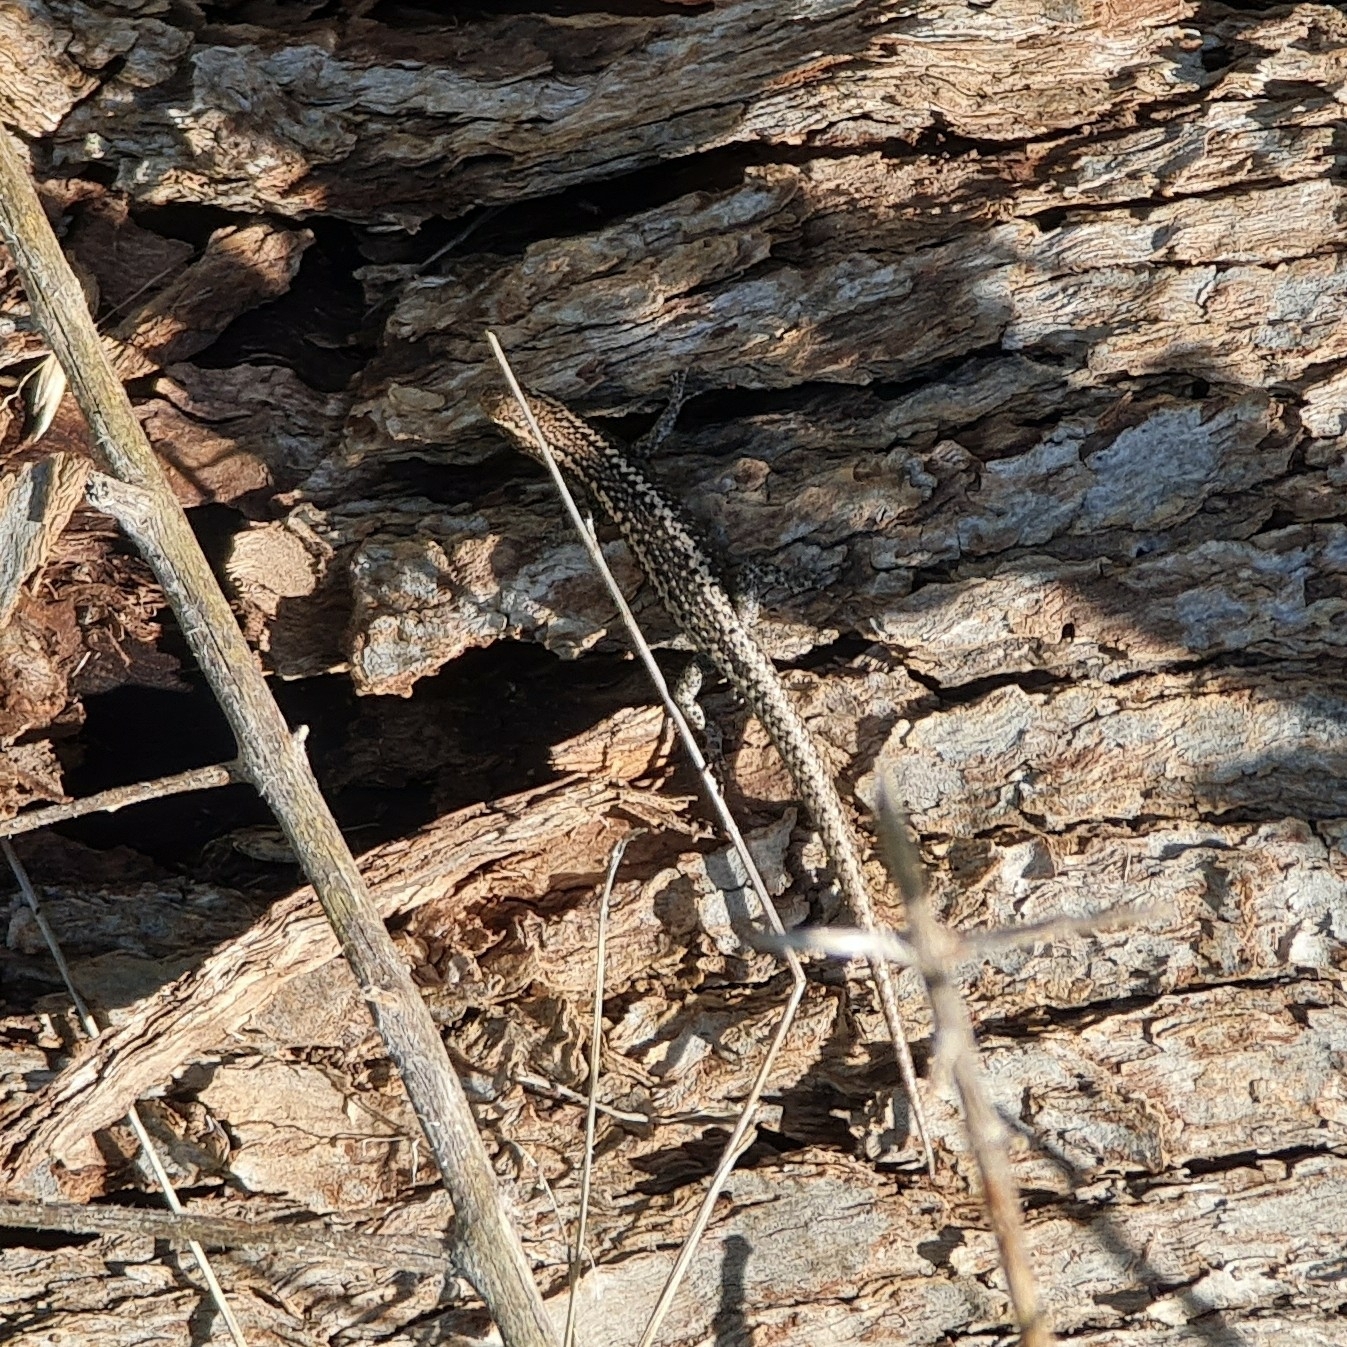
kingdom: Animalia
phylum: Chordata
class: Squamata
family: Scincidae
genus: Cryptoblepharus
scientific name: Cryptoblepharus pannosus
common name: Ragged snake-eyed skink
